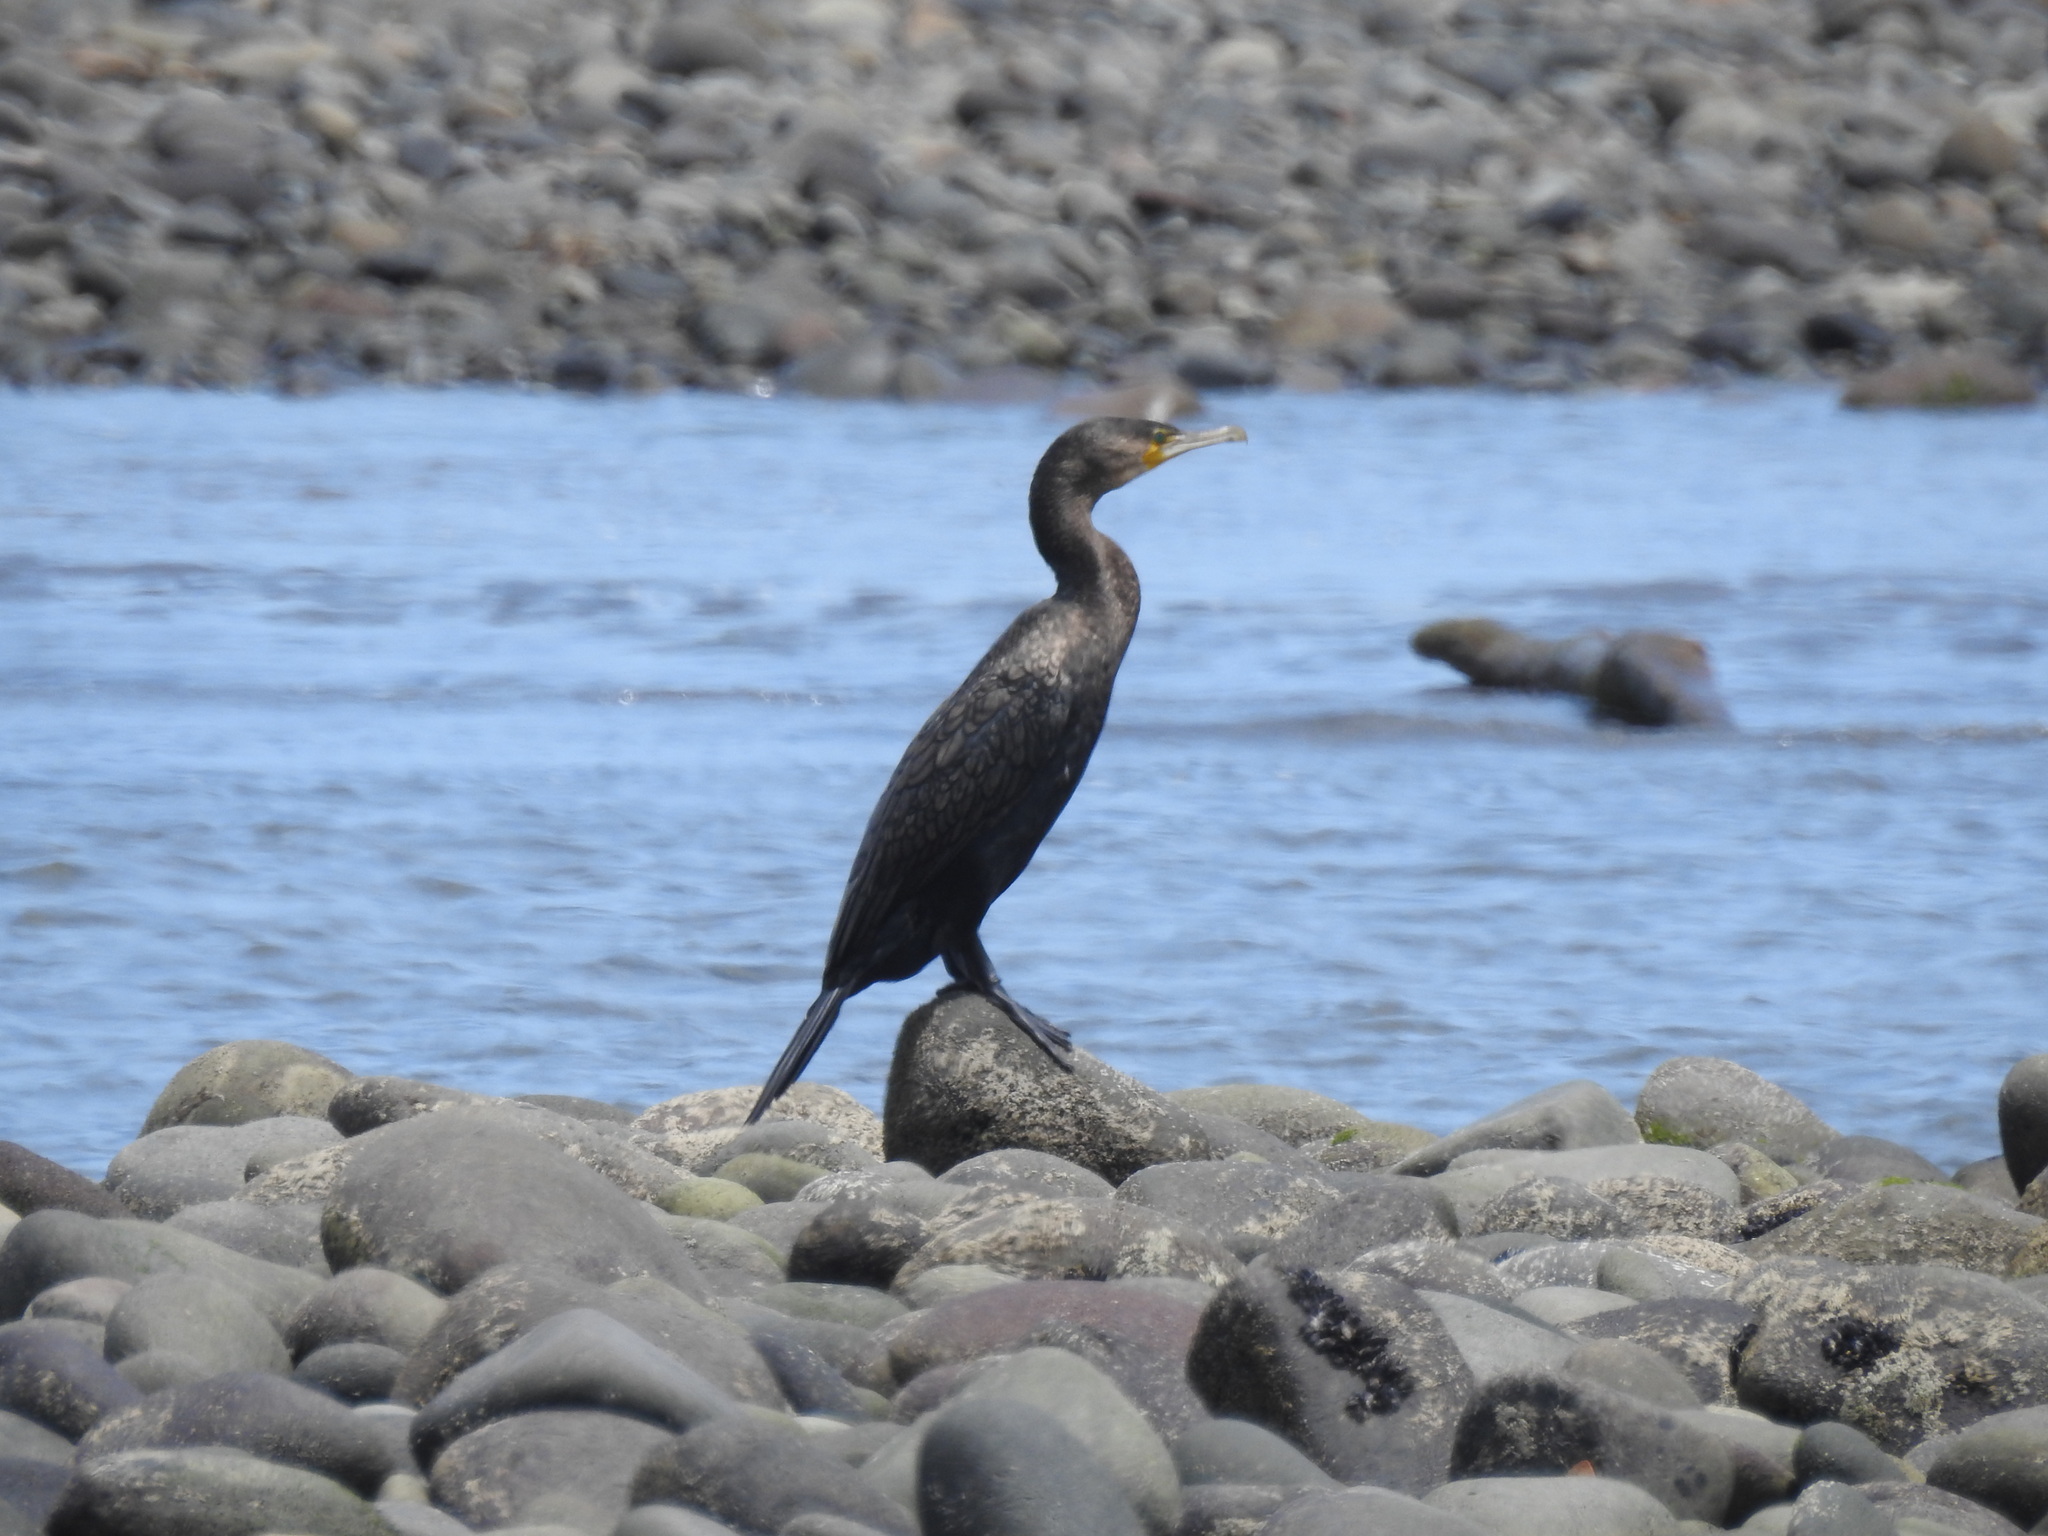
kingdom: Animalia
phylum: Chordata
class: Aves
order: Suliformes
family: Phalacrocoracidae
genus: Phalacrocorax
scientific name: Phalacrocorax carbo
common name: Great cormorant
